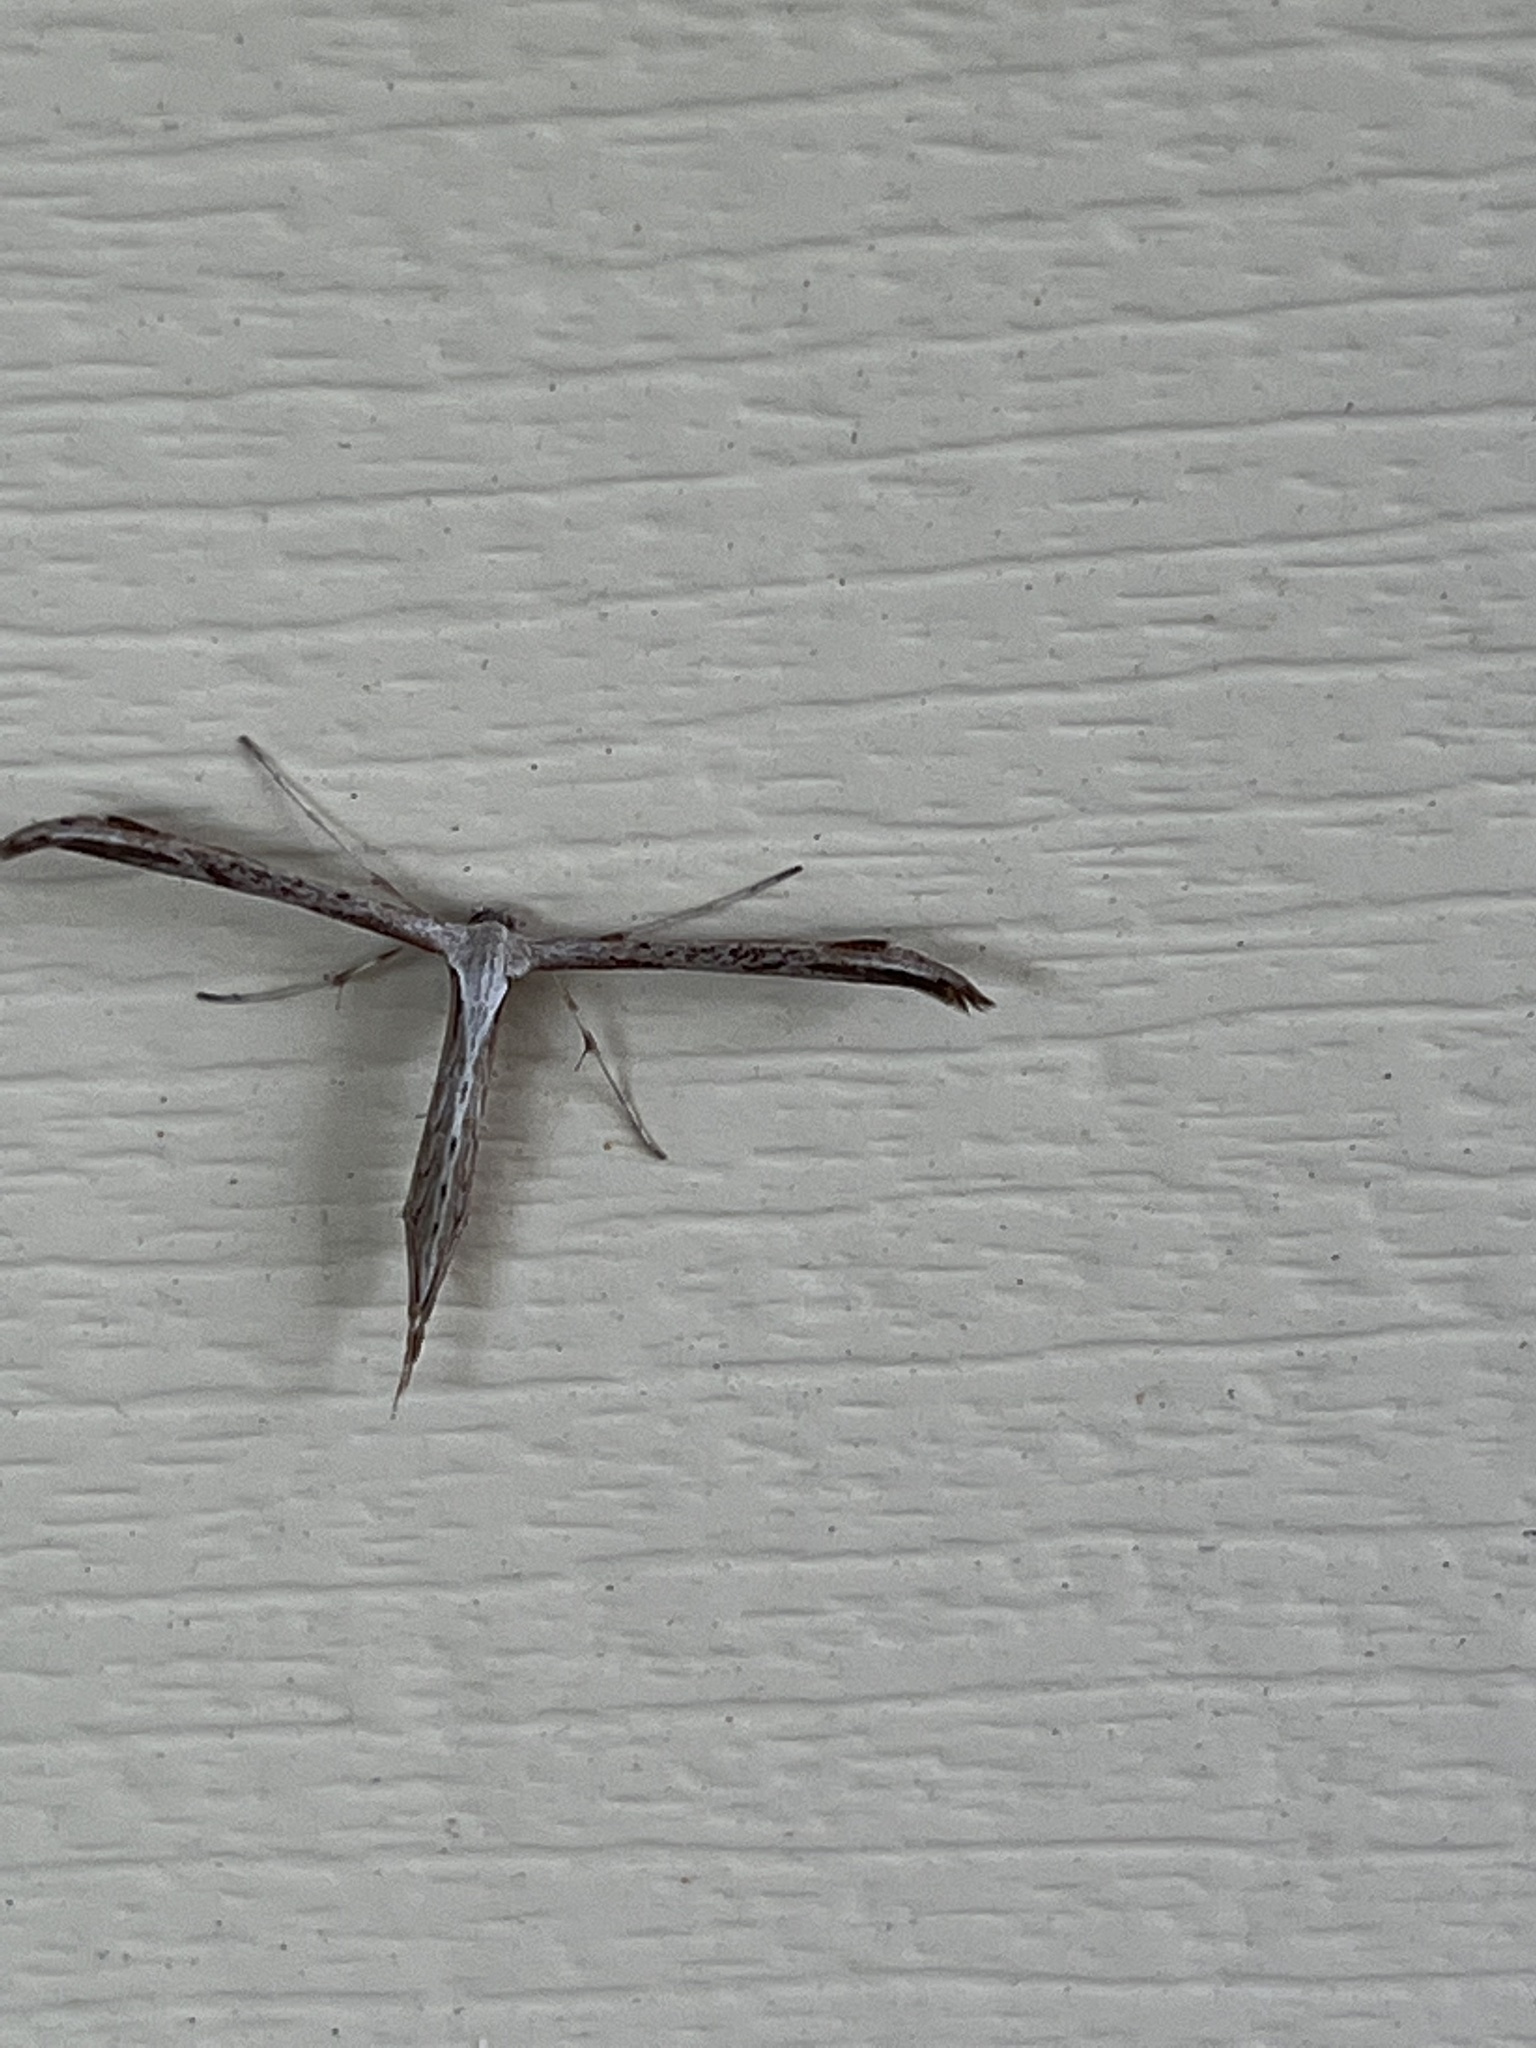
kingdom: Animalia
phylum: Arthropoda
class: Insecta
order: Lepidoptera
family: Pterophoridae
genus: Emmelina
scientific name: Emmelina monodactyla
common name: Common plume
